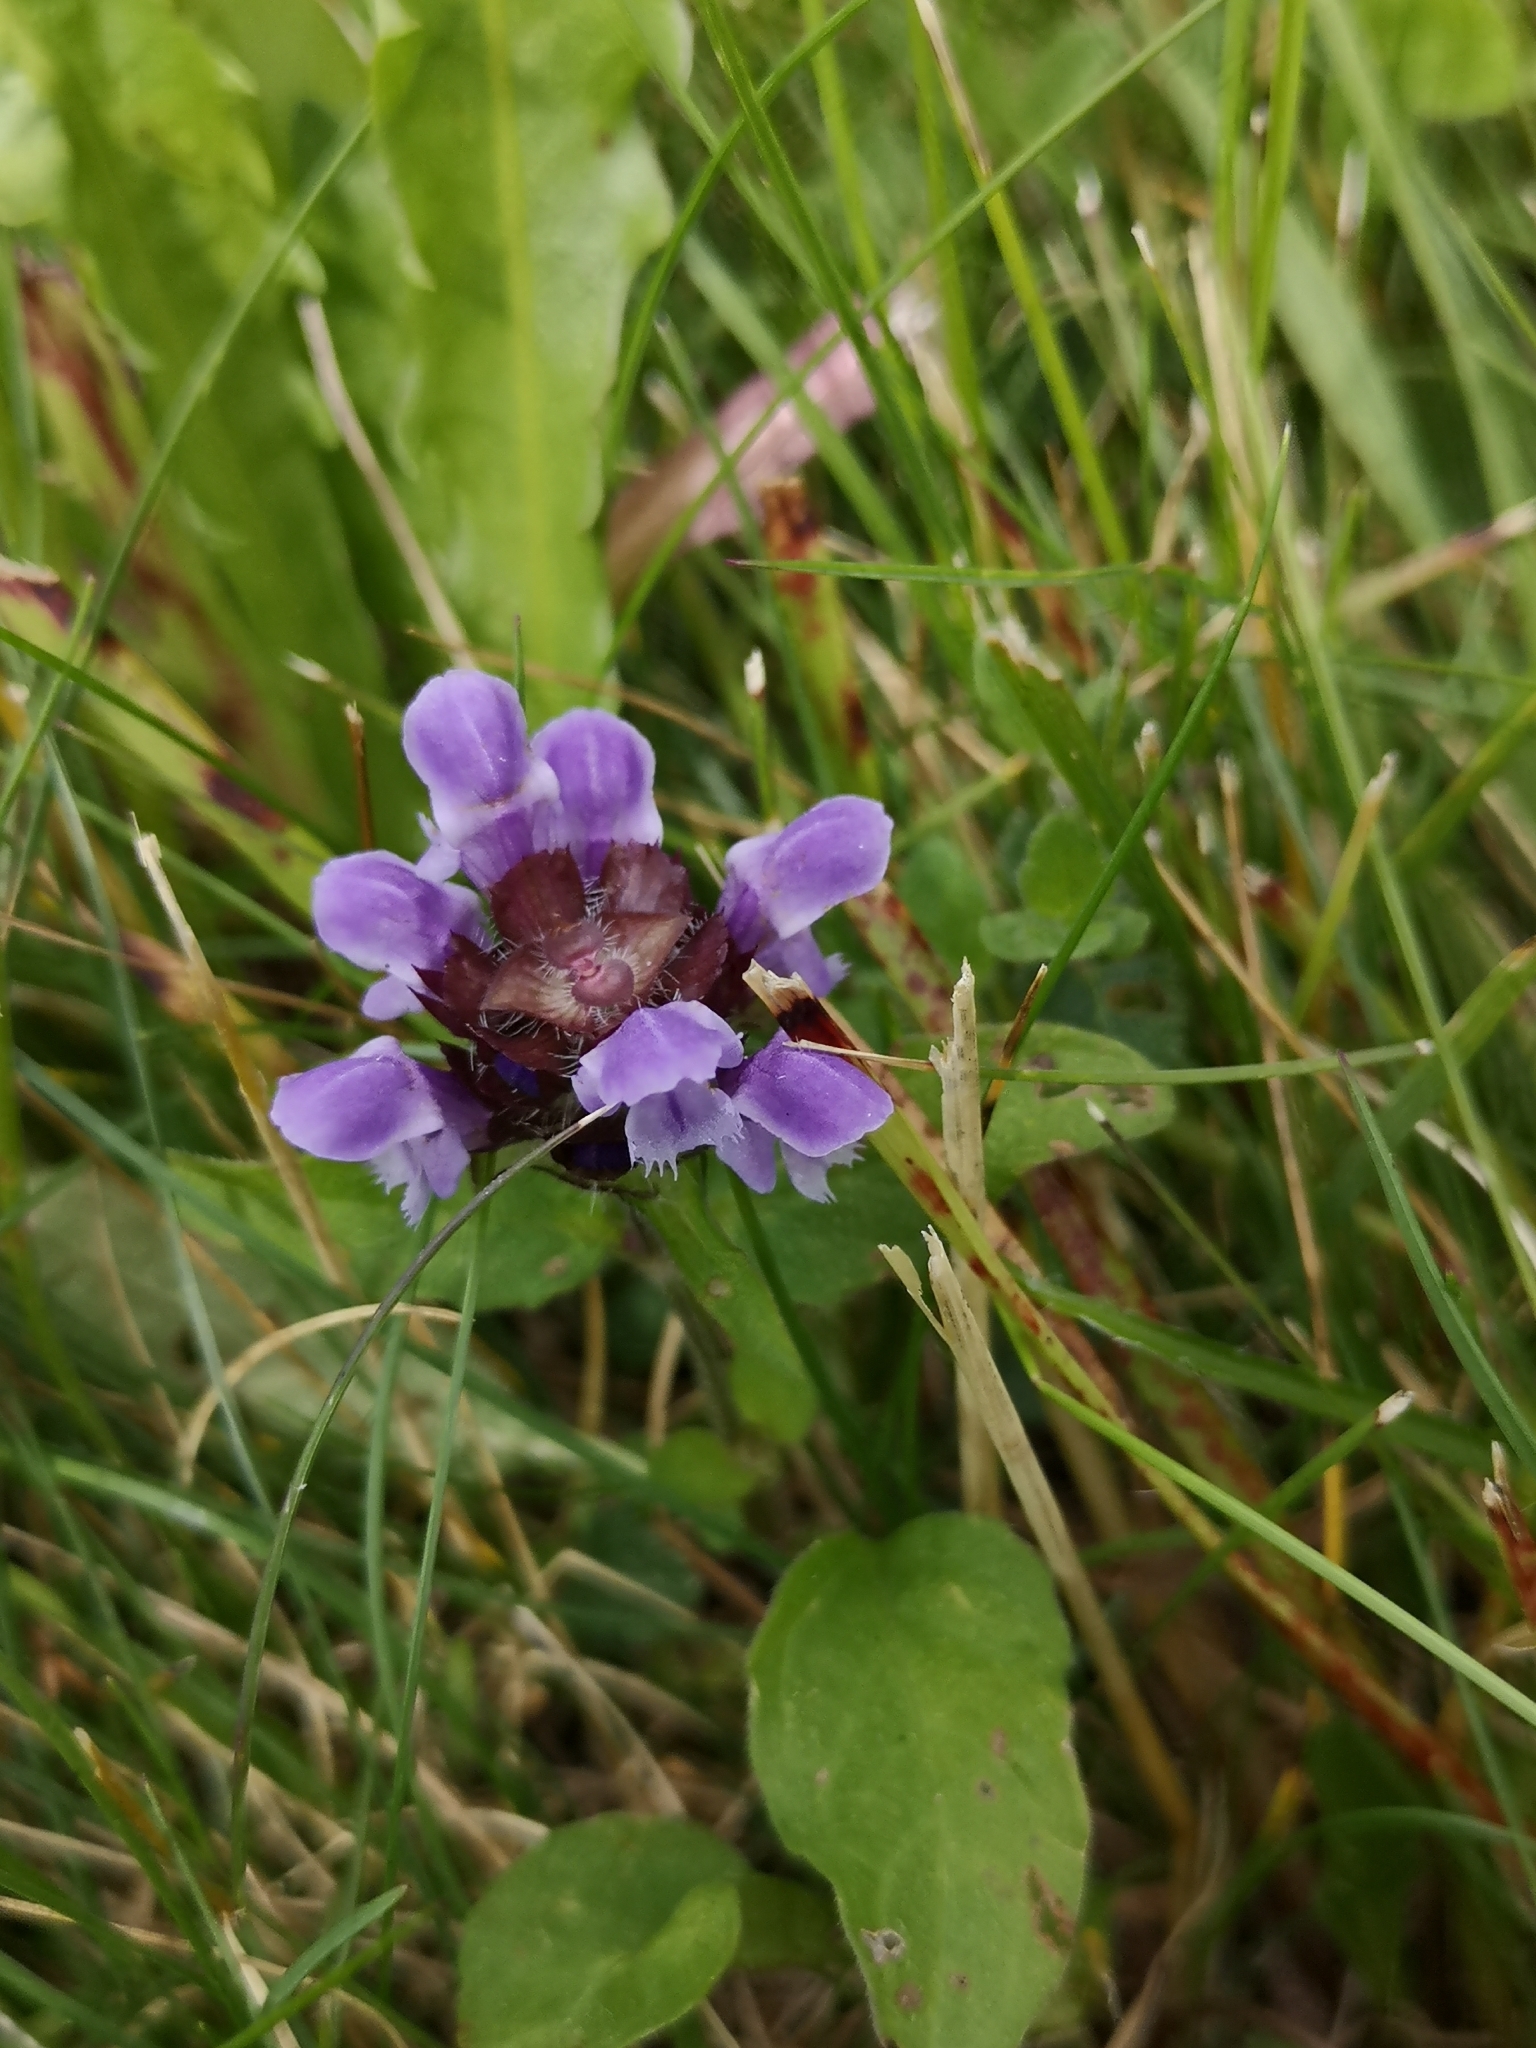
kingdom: Plantae
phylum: Tracheophyta
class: Magnoliopsida
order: Lamiales
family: Lamiaceae
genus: Prunella
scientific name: Prunella vulgaris
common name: Heal-all
